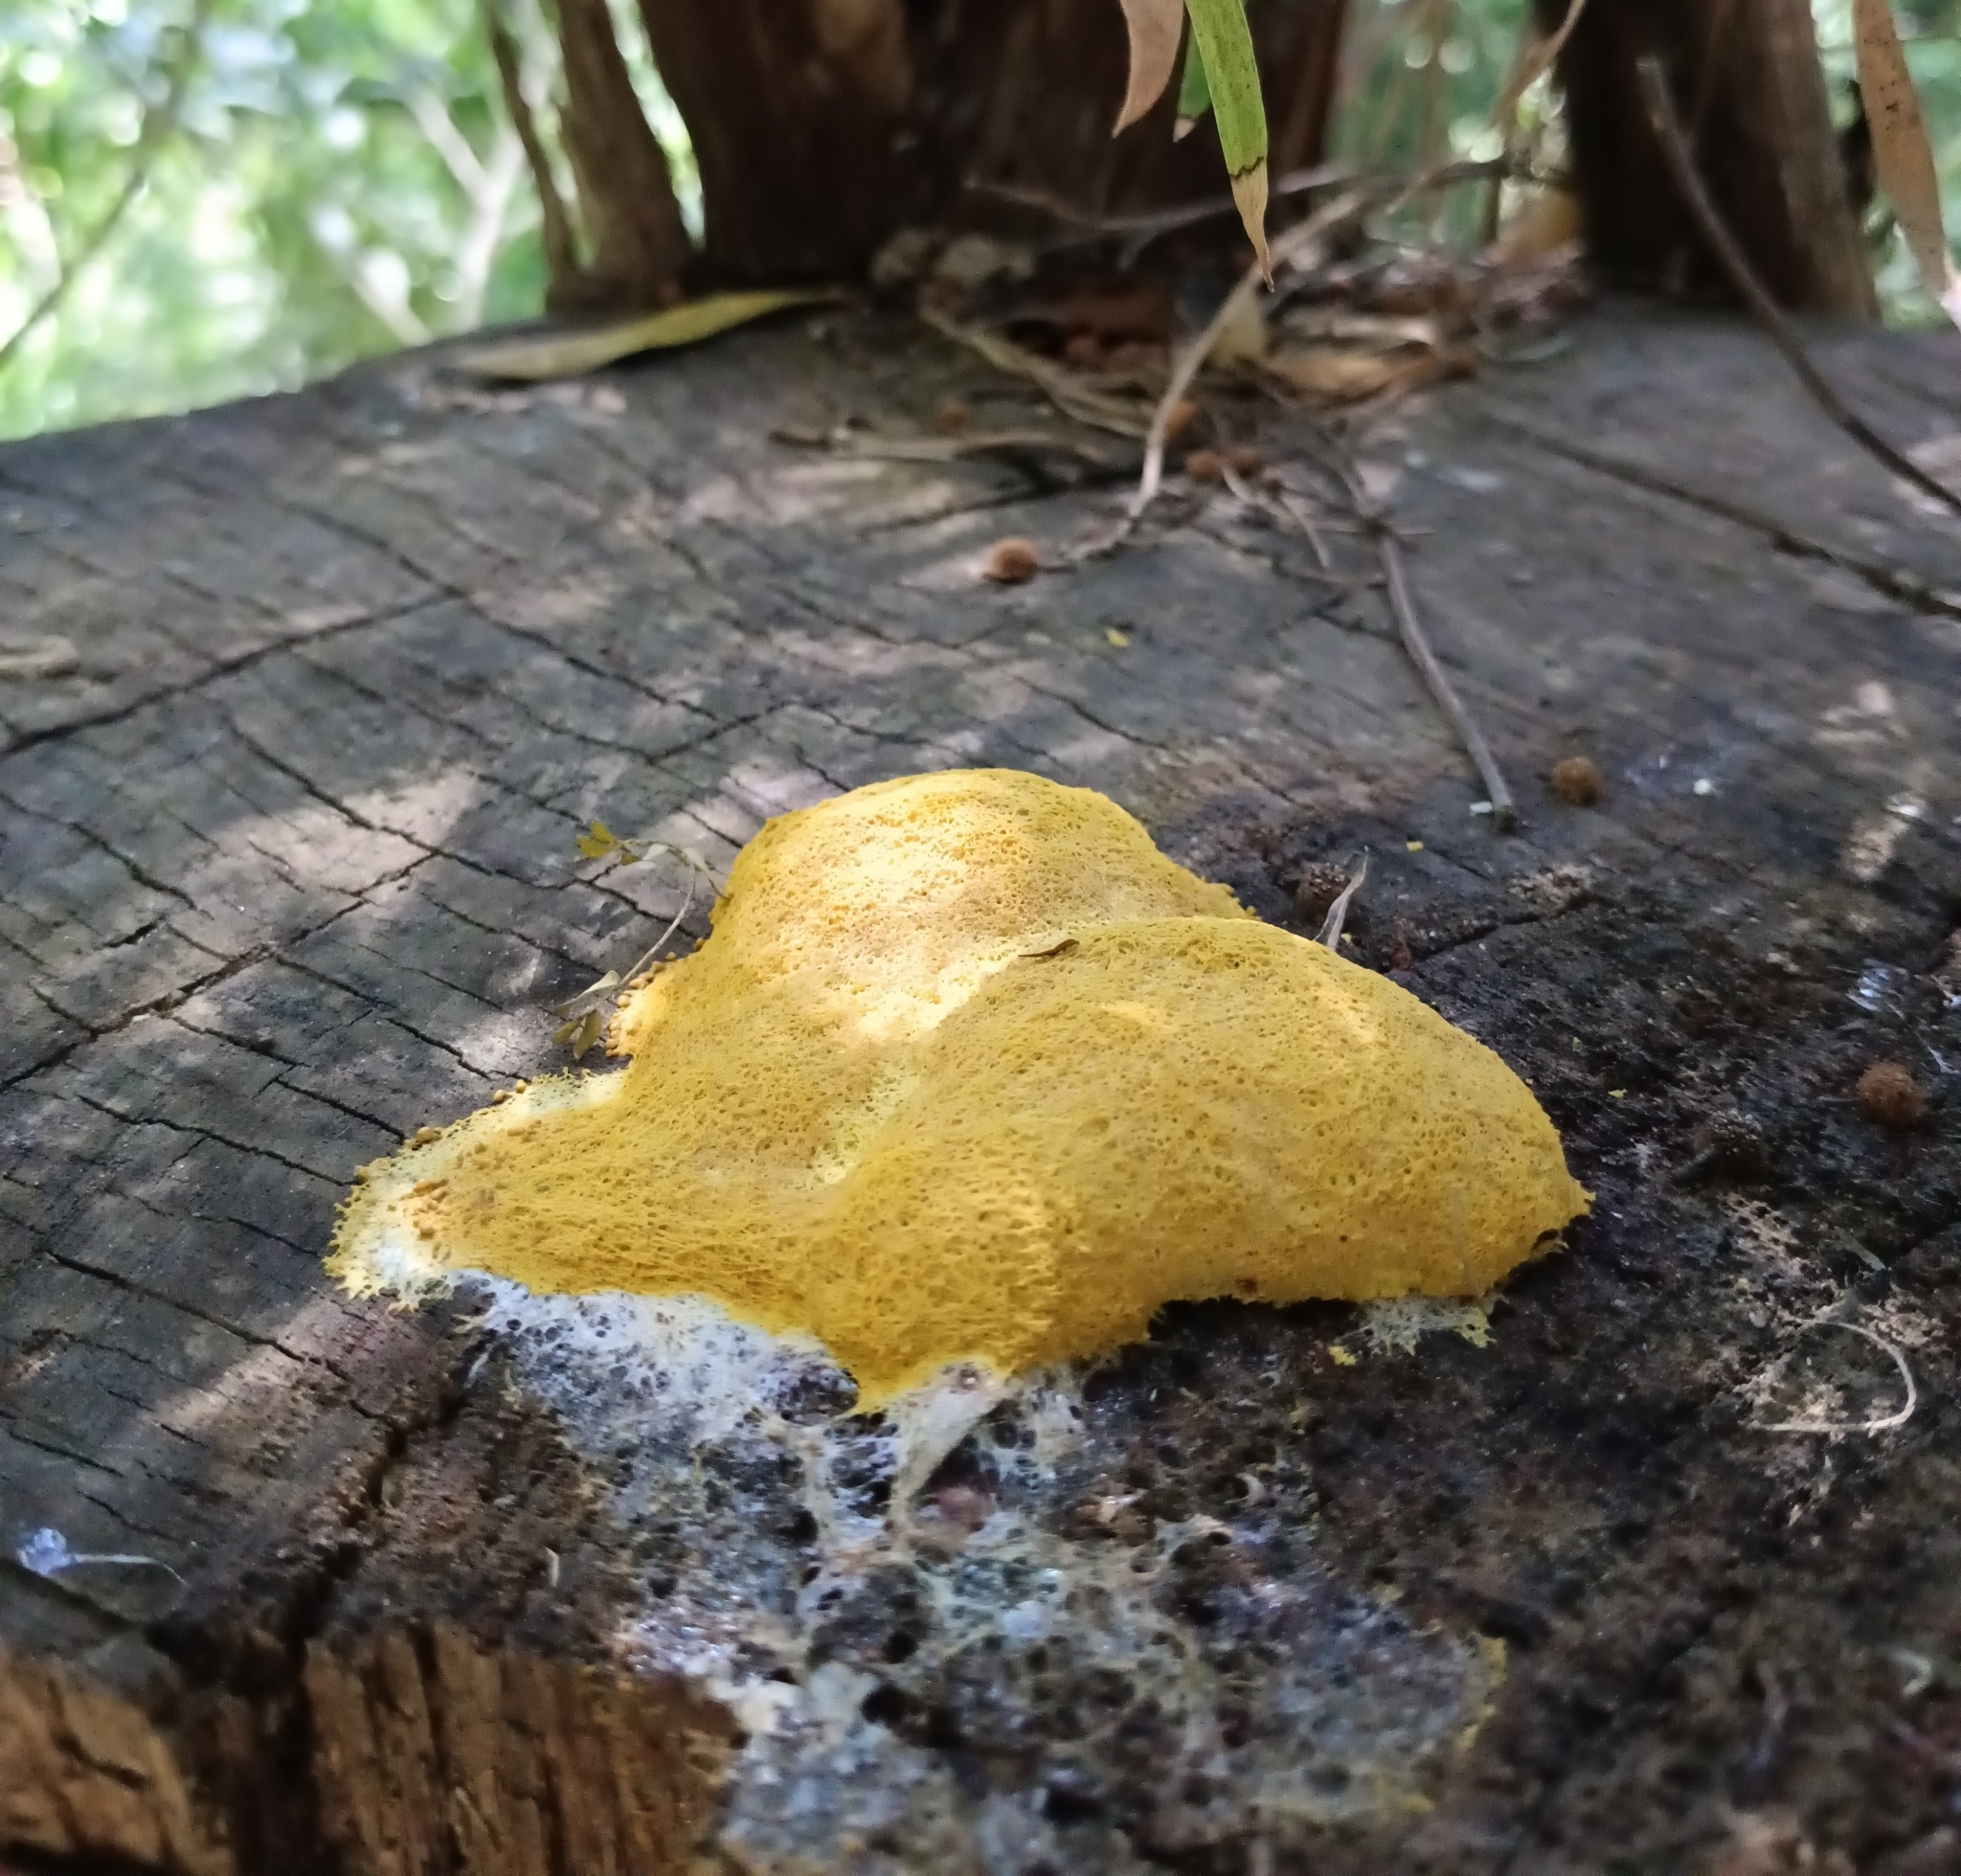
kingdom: Protozoa
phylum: Mycetozoa
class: Myxomycetes
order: Physarales
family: Physaraceae
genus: Fuligo
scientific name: Fuligo septica
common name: Dog vomit slime mold
